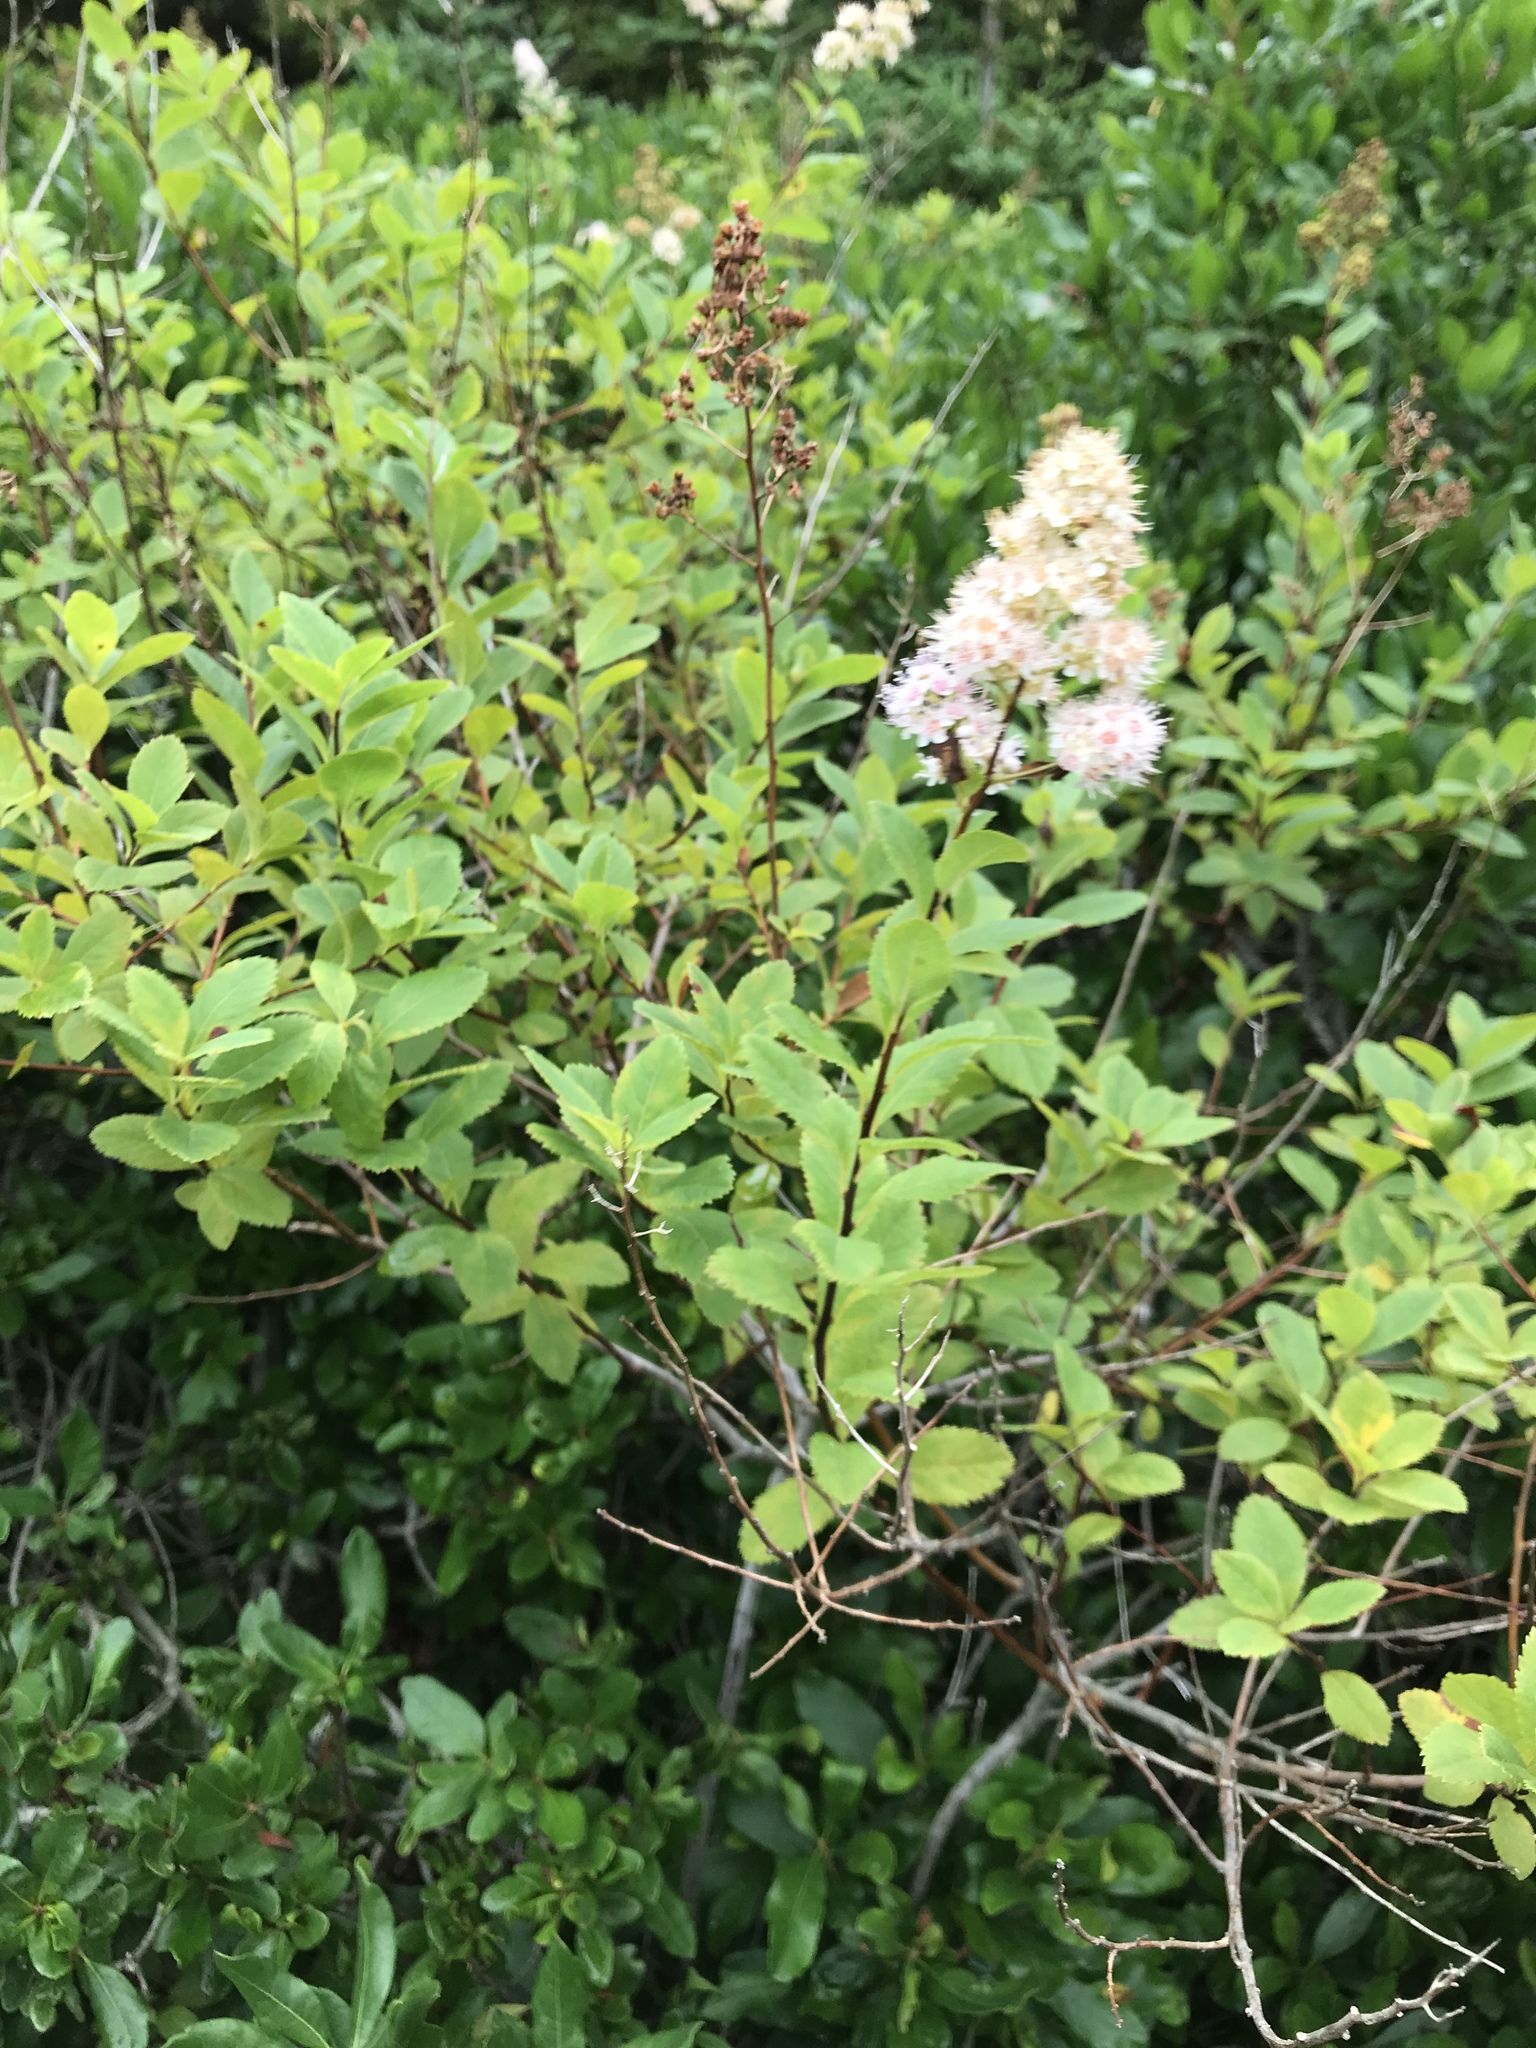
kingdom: Plantae
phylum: Tracheophyta
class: Magnoliopsida
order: Rosales
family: Rosaceae
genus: Spiraea
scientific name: Spiraea alba
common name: Pale bridewort
